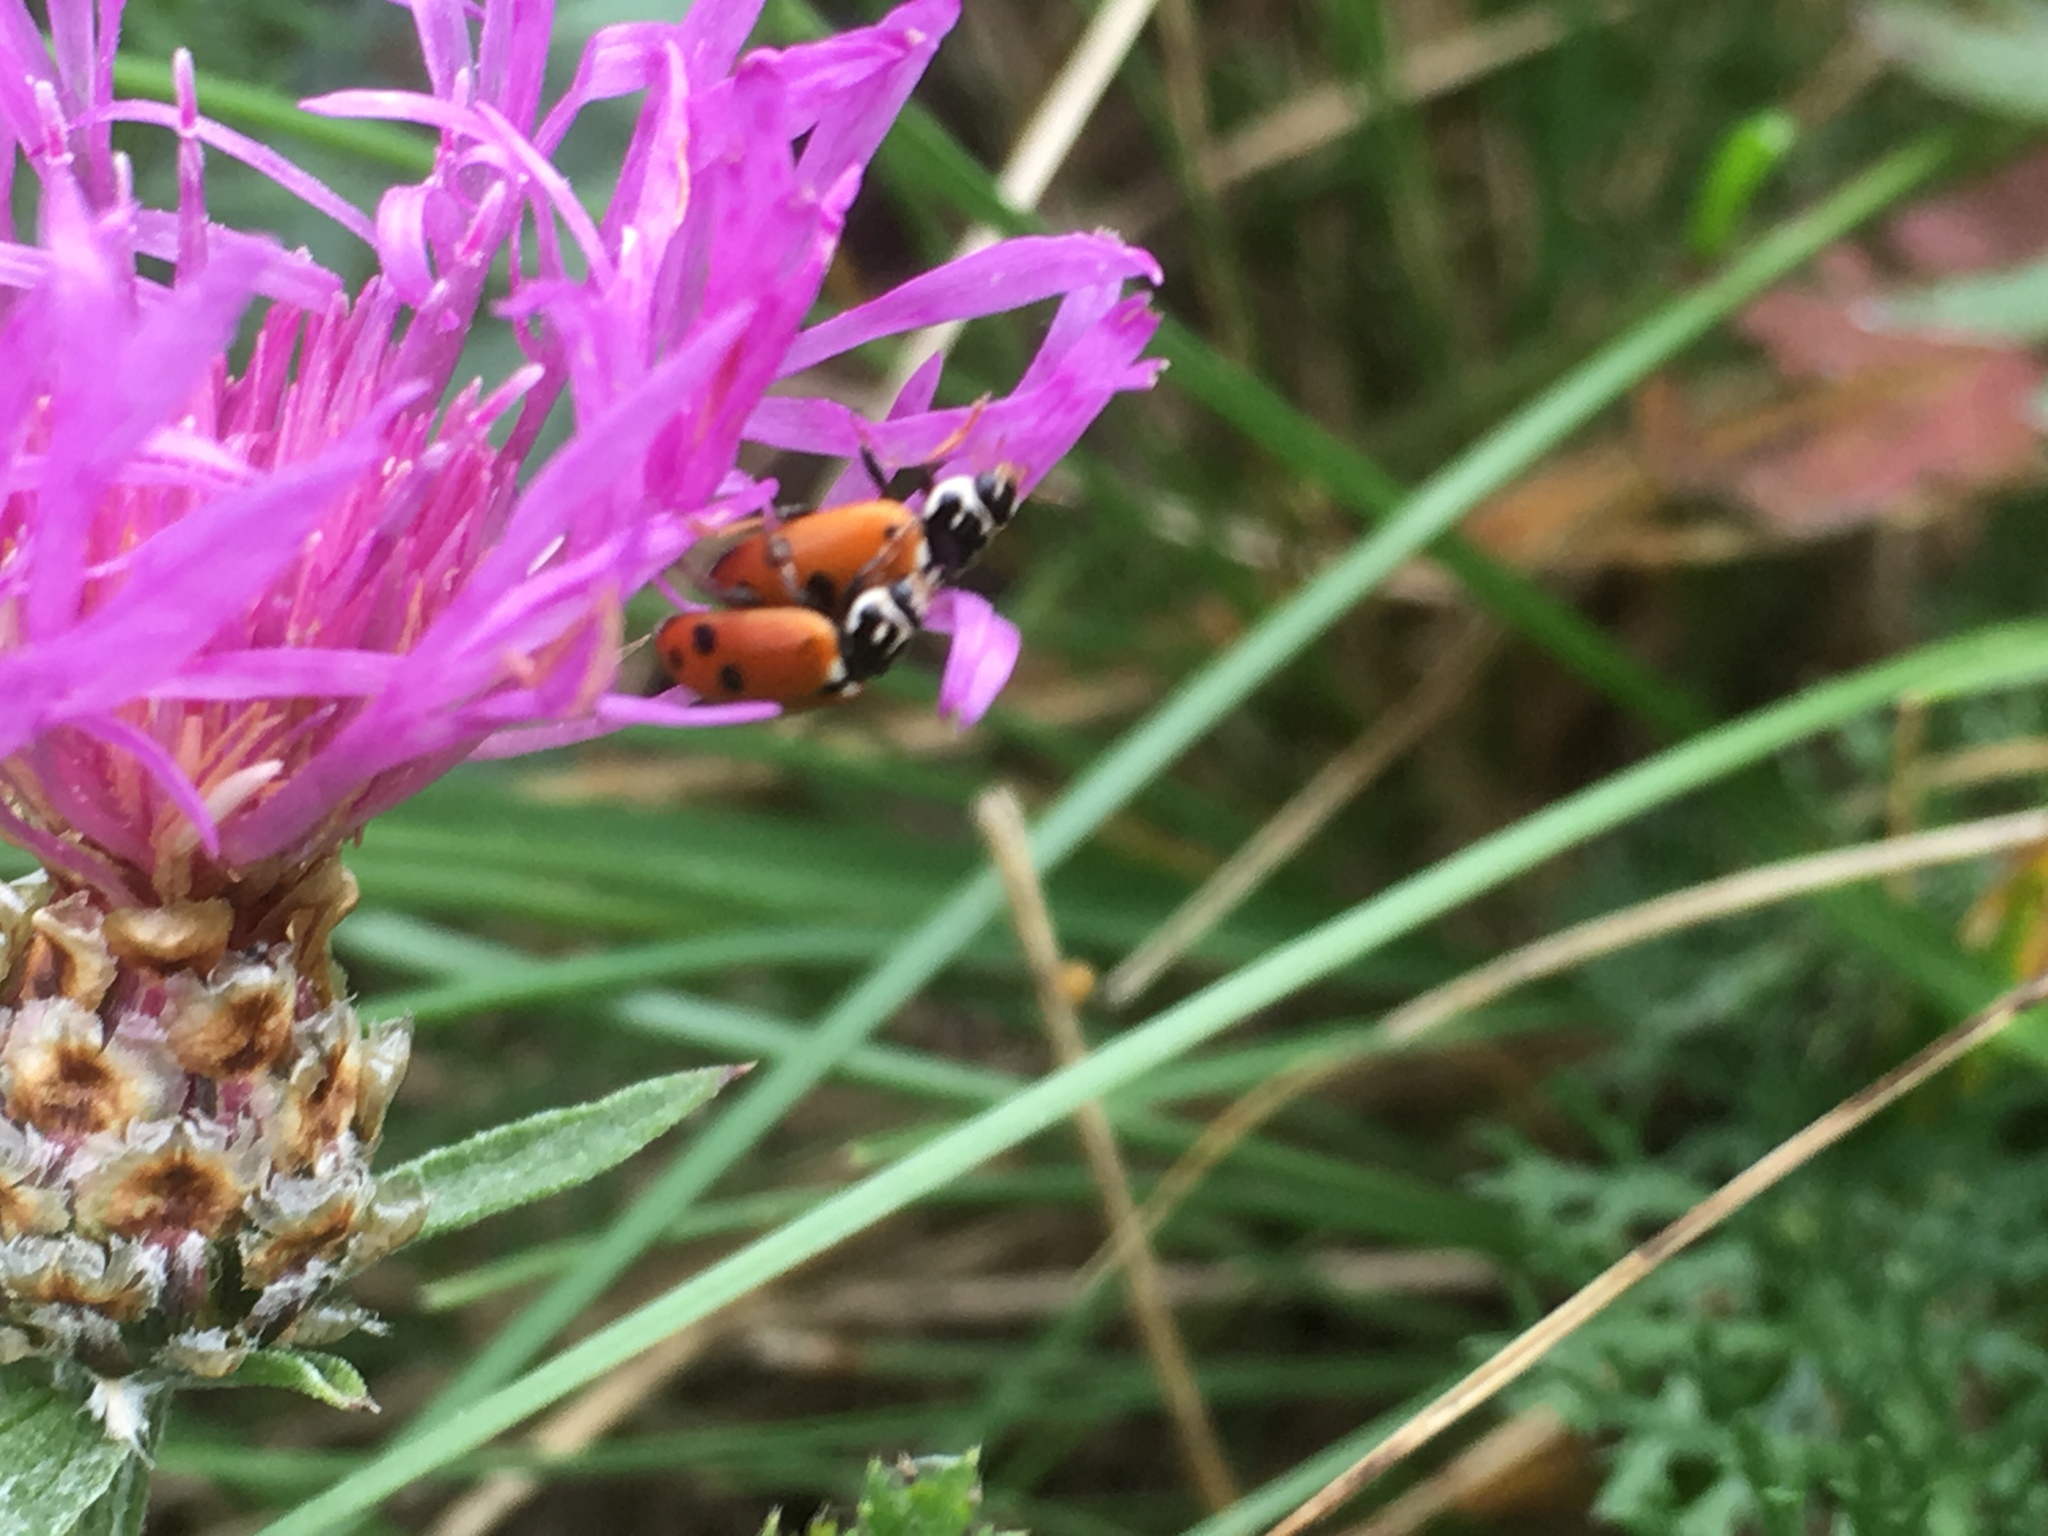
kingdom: Animalia
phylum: Arthropoda
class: Insecta
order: Coleoptera
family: Coccinellidae
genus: Hippodamia
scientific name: Hippodamia variegata
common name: Ladybird beetle
